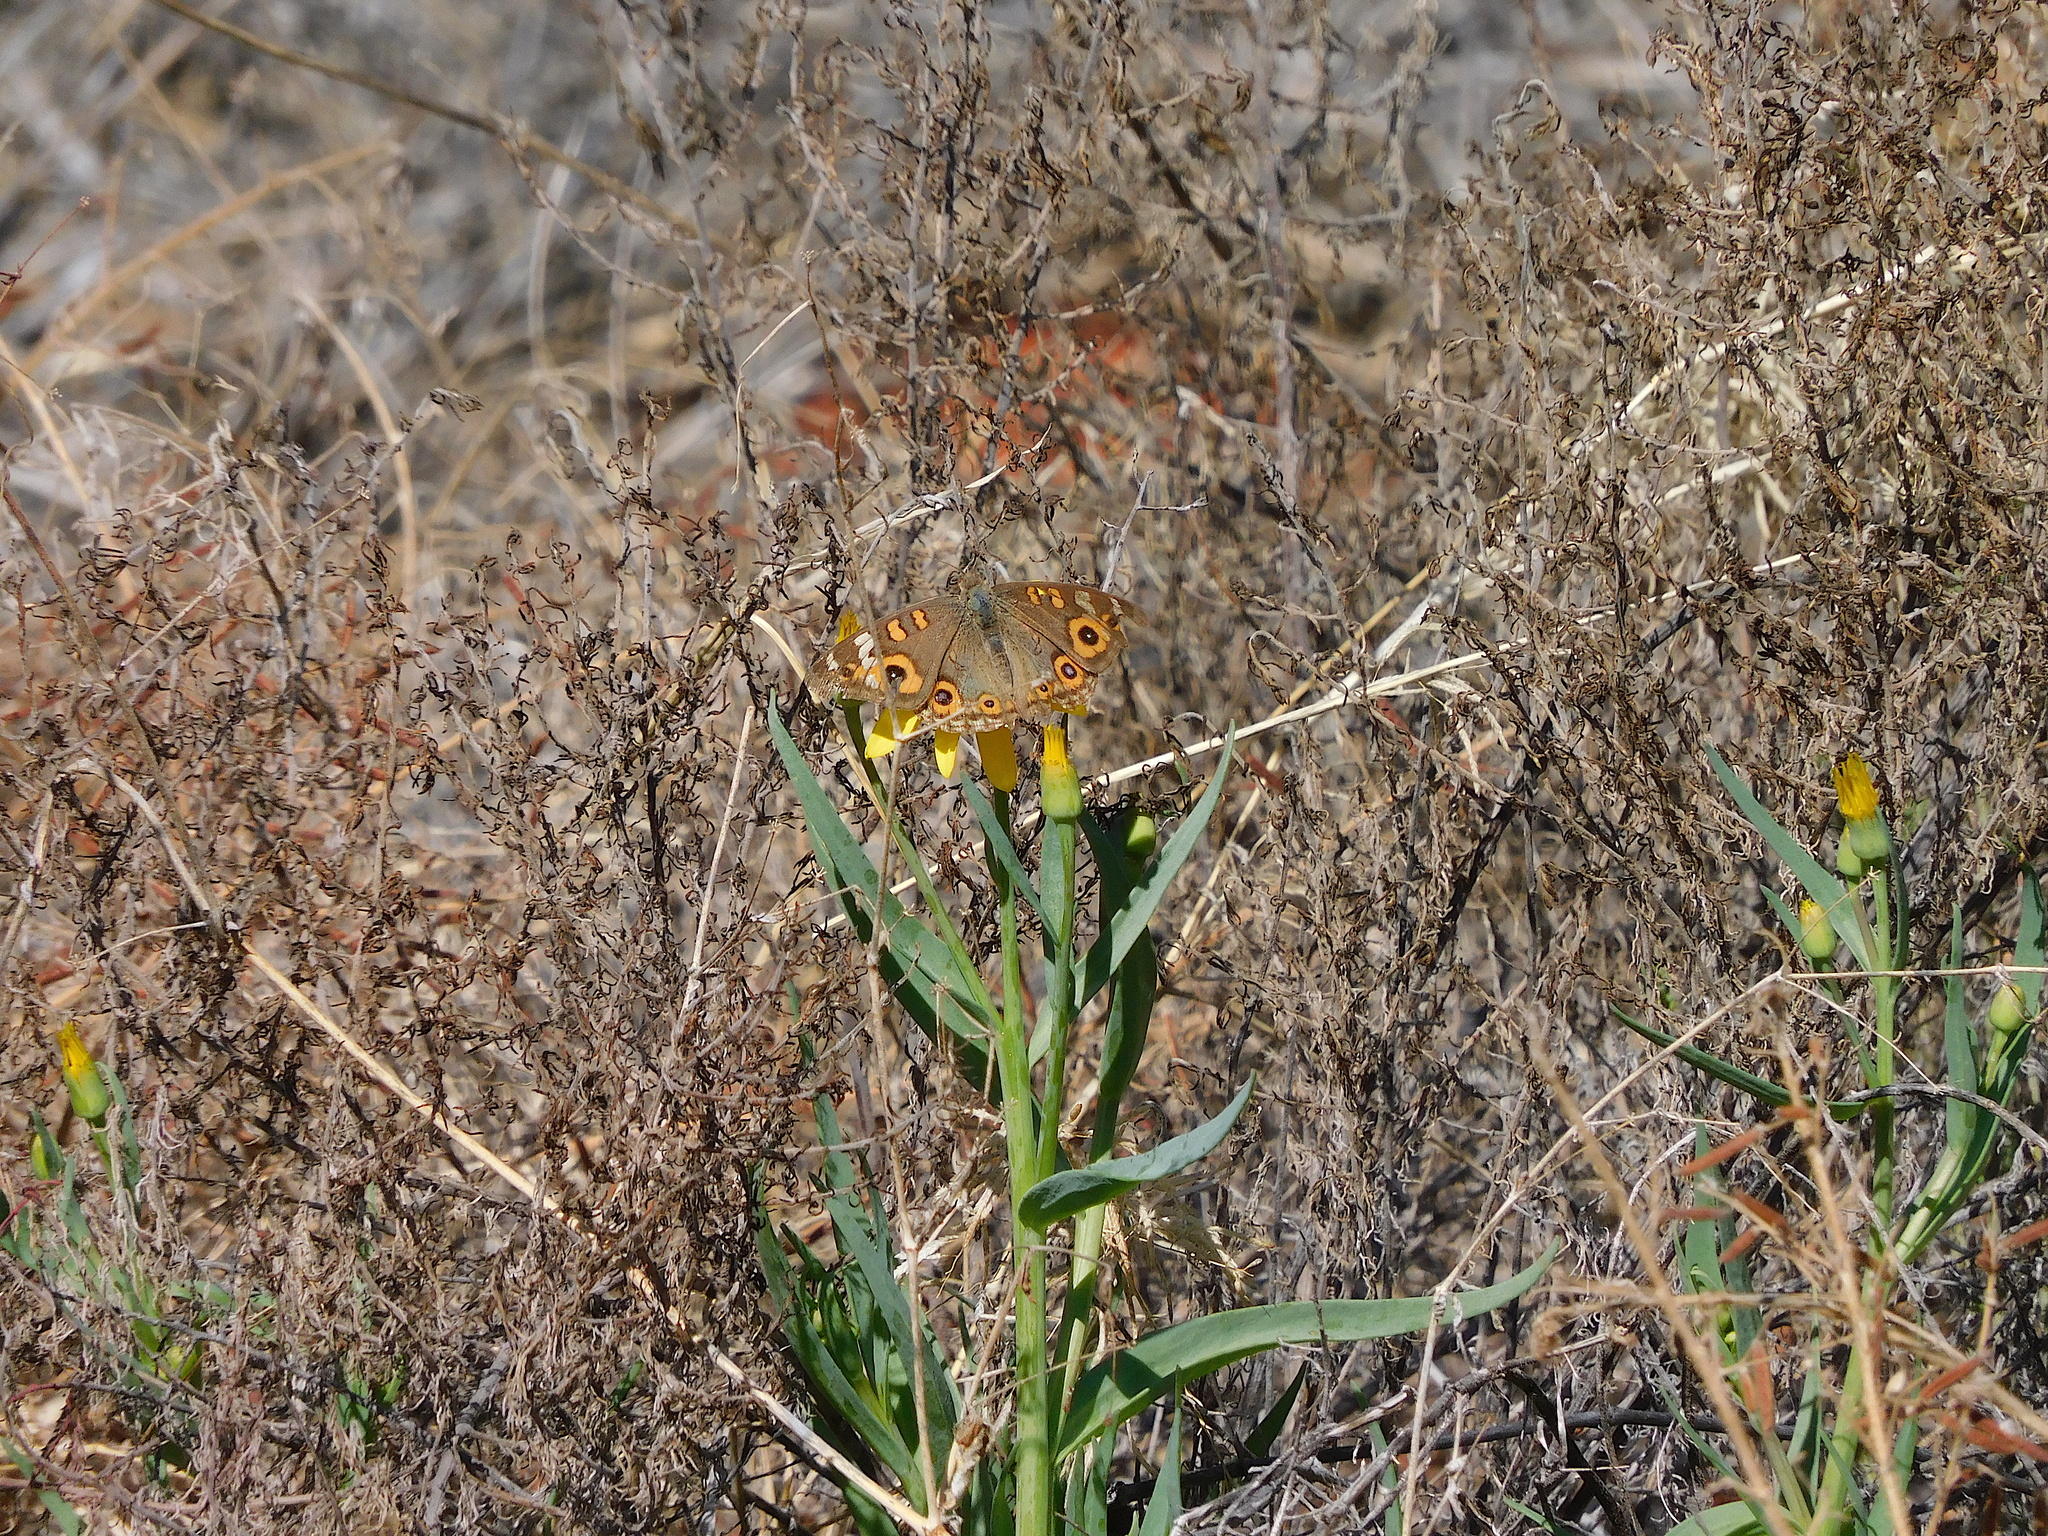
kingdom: Animalia
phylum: Arthropoda
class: Insecta
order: Lepidoptera
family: Nymphalidae
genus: Junonia
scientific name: Junonia villida
